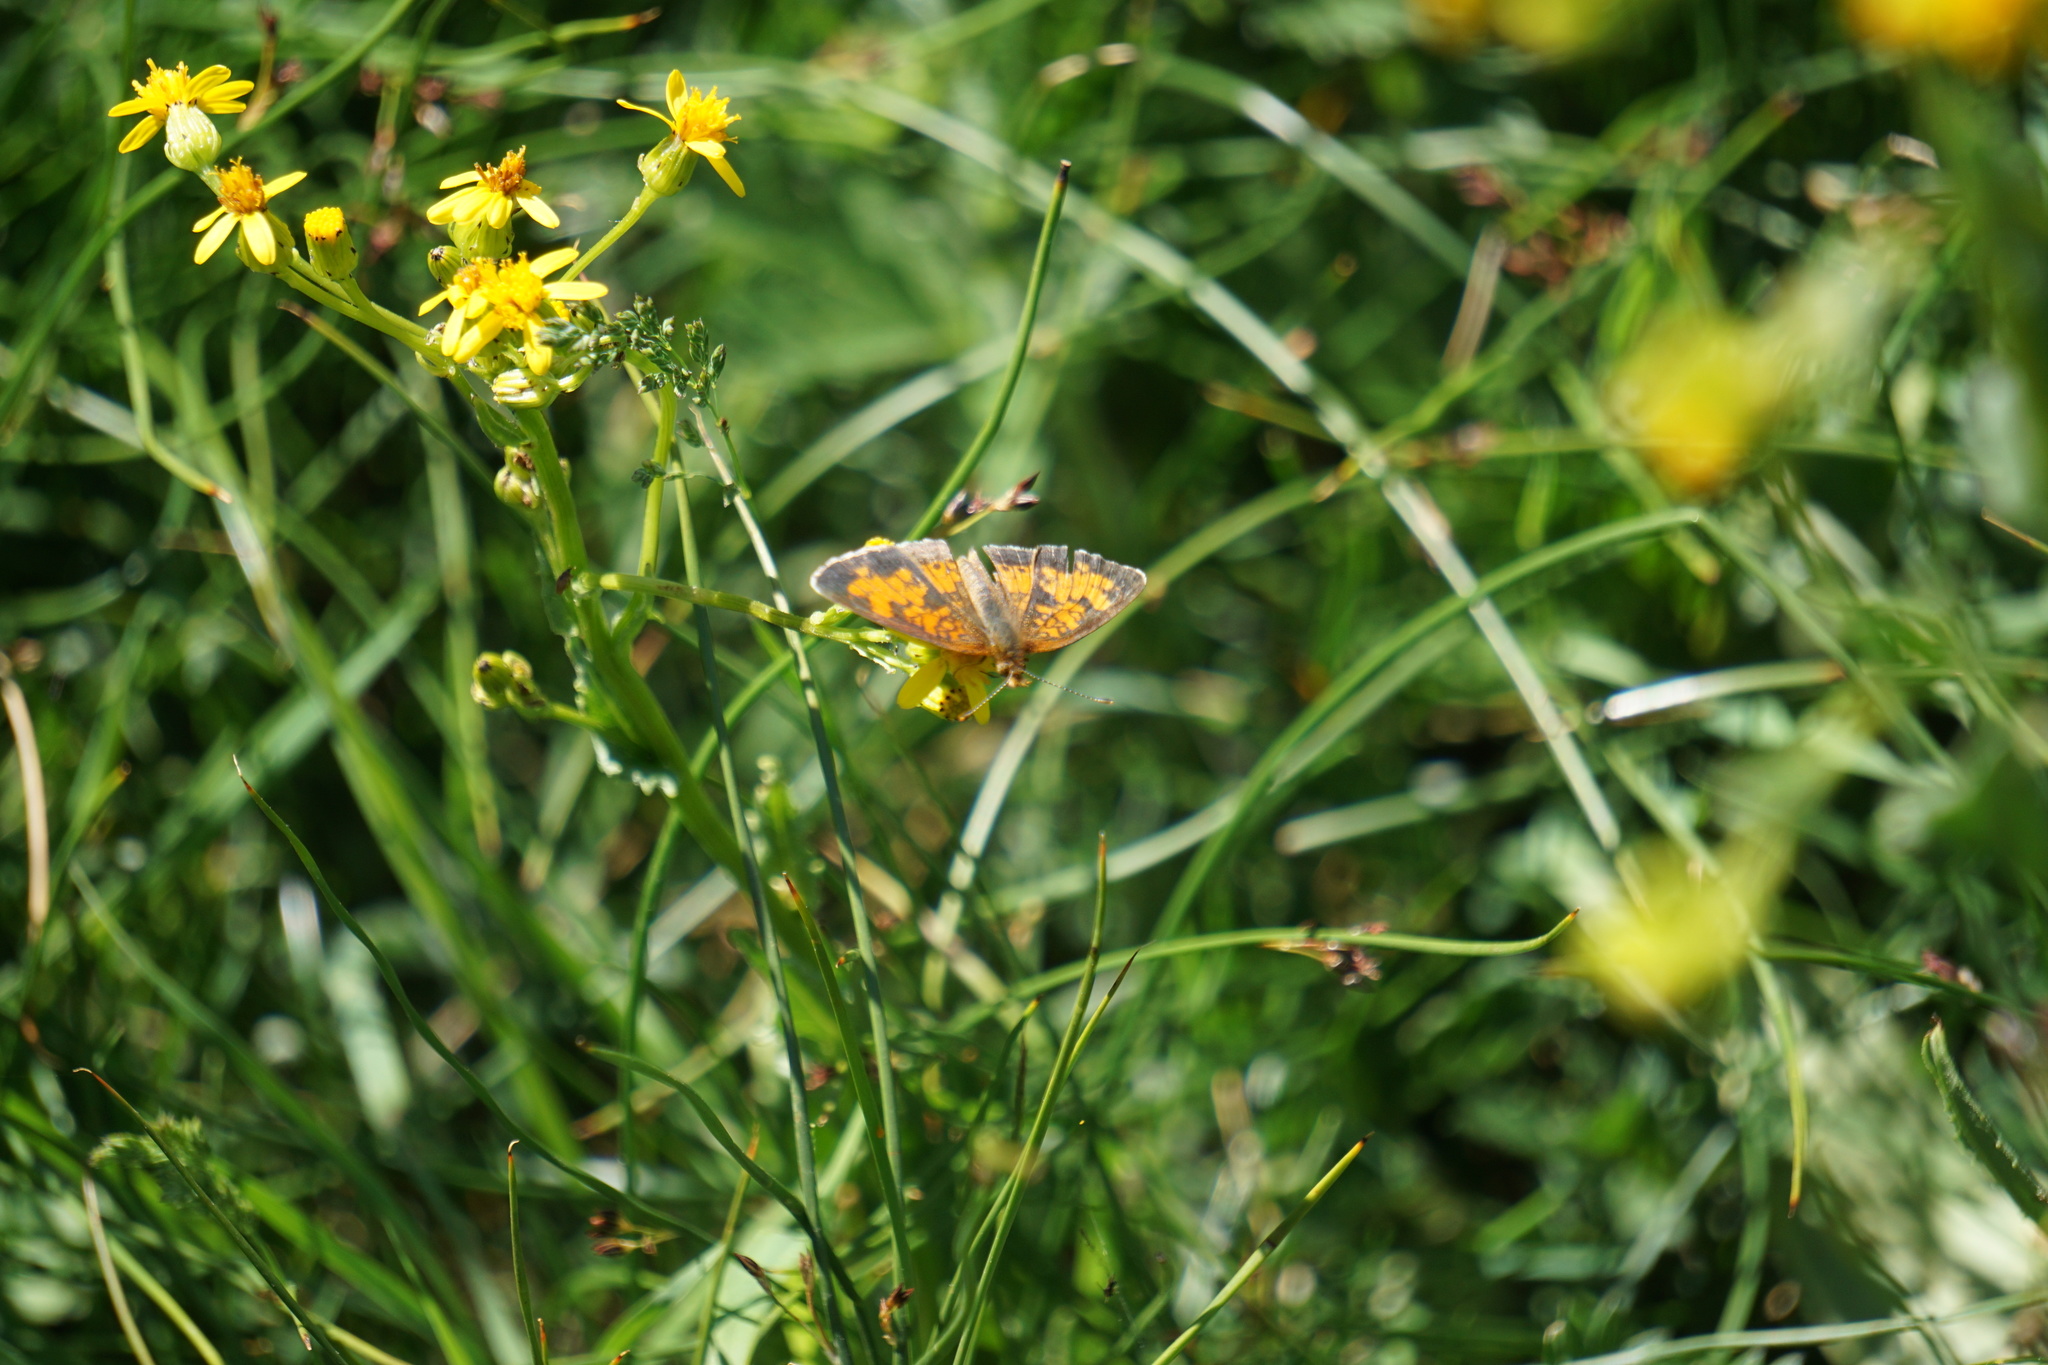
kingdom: Animalia
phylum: Arthropoda
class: Insecta
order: Lepidoptera
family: Nymphalidae
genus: Phyciodes
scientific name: Phyciodes tharos
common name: Pearl crescent
